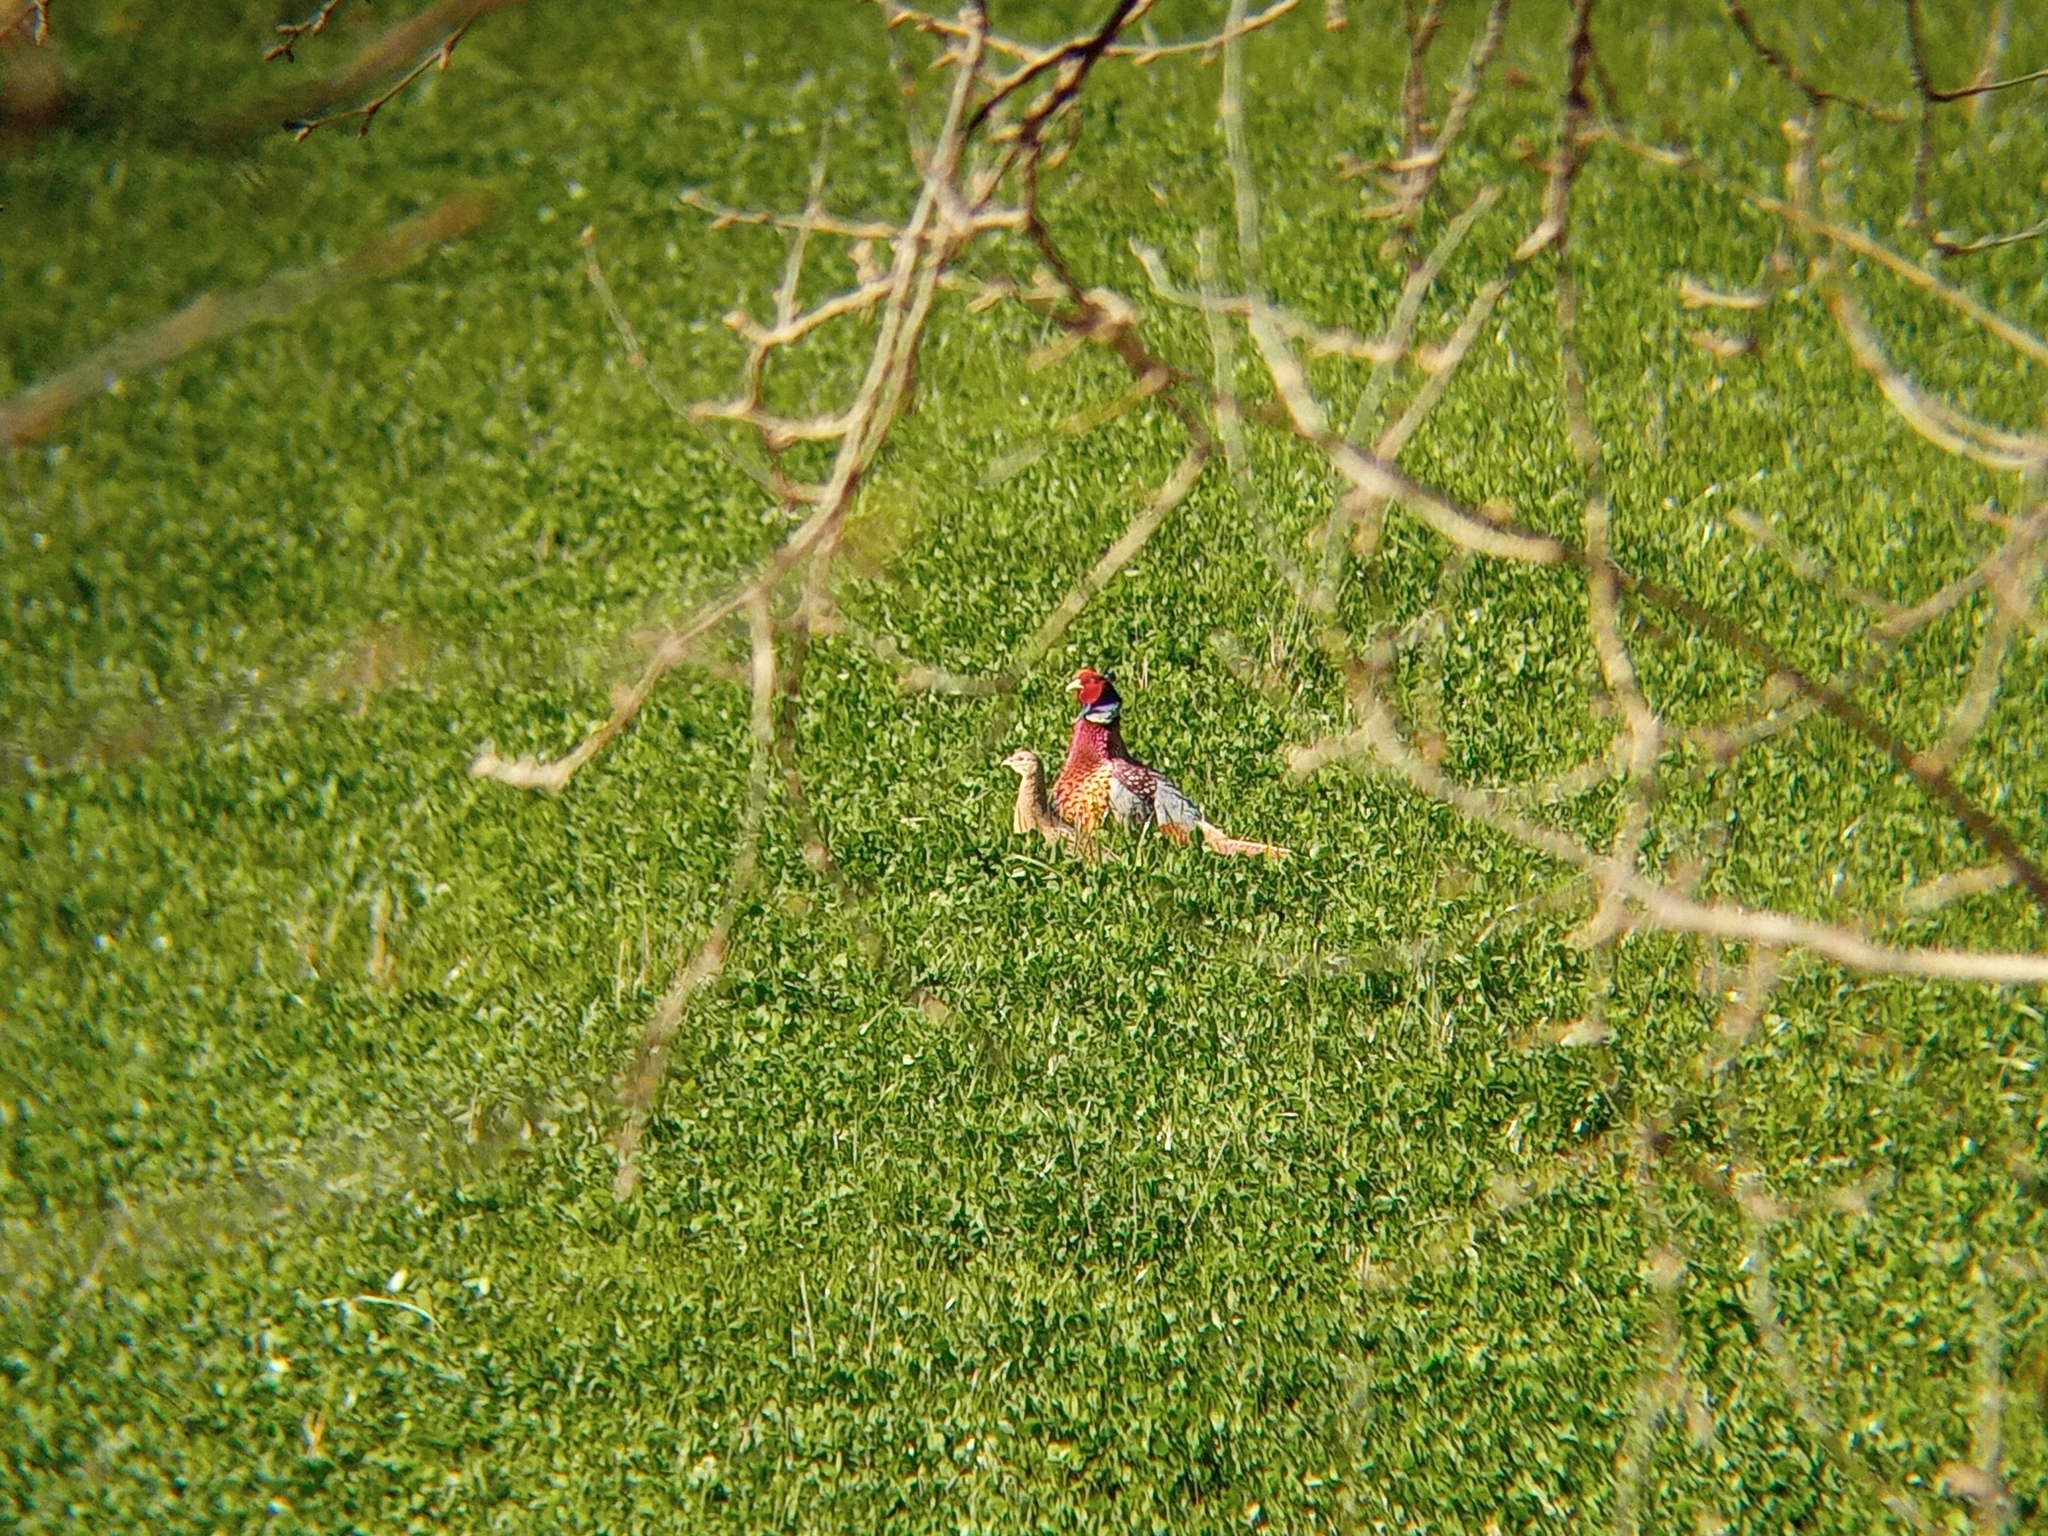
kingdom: Animalia
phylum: Chordata
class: Aves
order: Galliformes
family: Phasianidae
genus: Phasianus
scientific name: Phasianus colchicus
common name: Common pheasant
